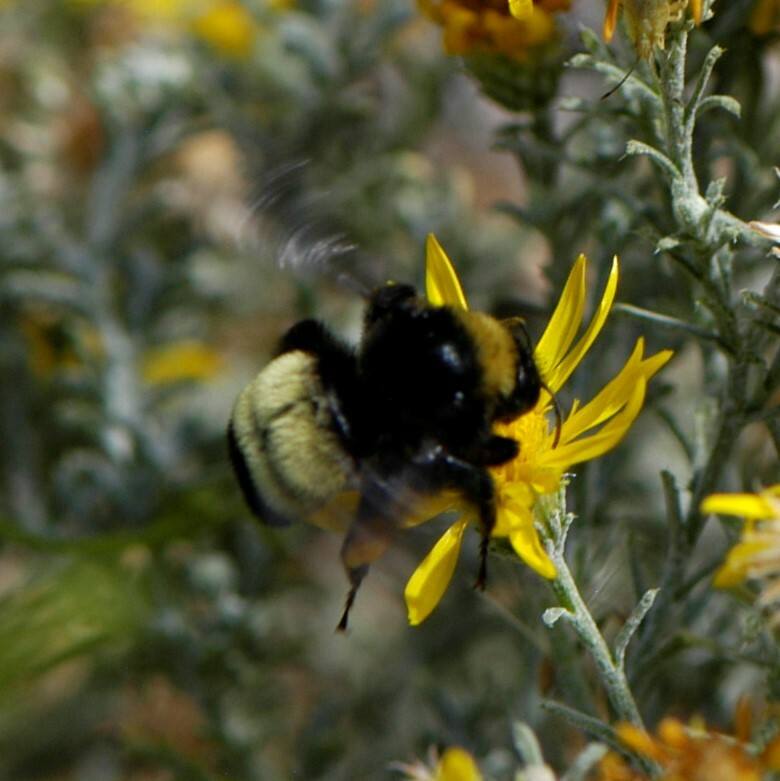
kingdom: Animalia
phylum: Arthropoda
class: Insecta
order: Hymenoptera
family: Apidae
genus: Bombus
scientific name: Bombus pensylvanicus
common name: Bumble bee
